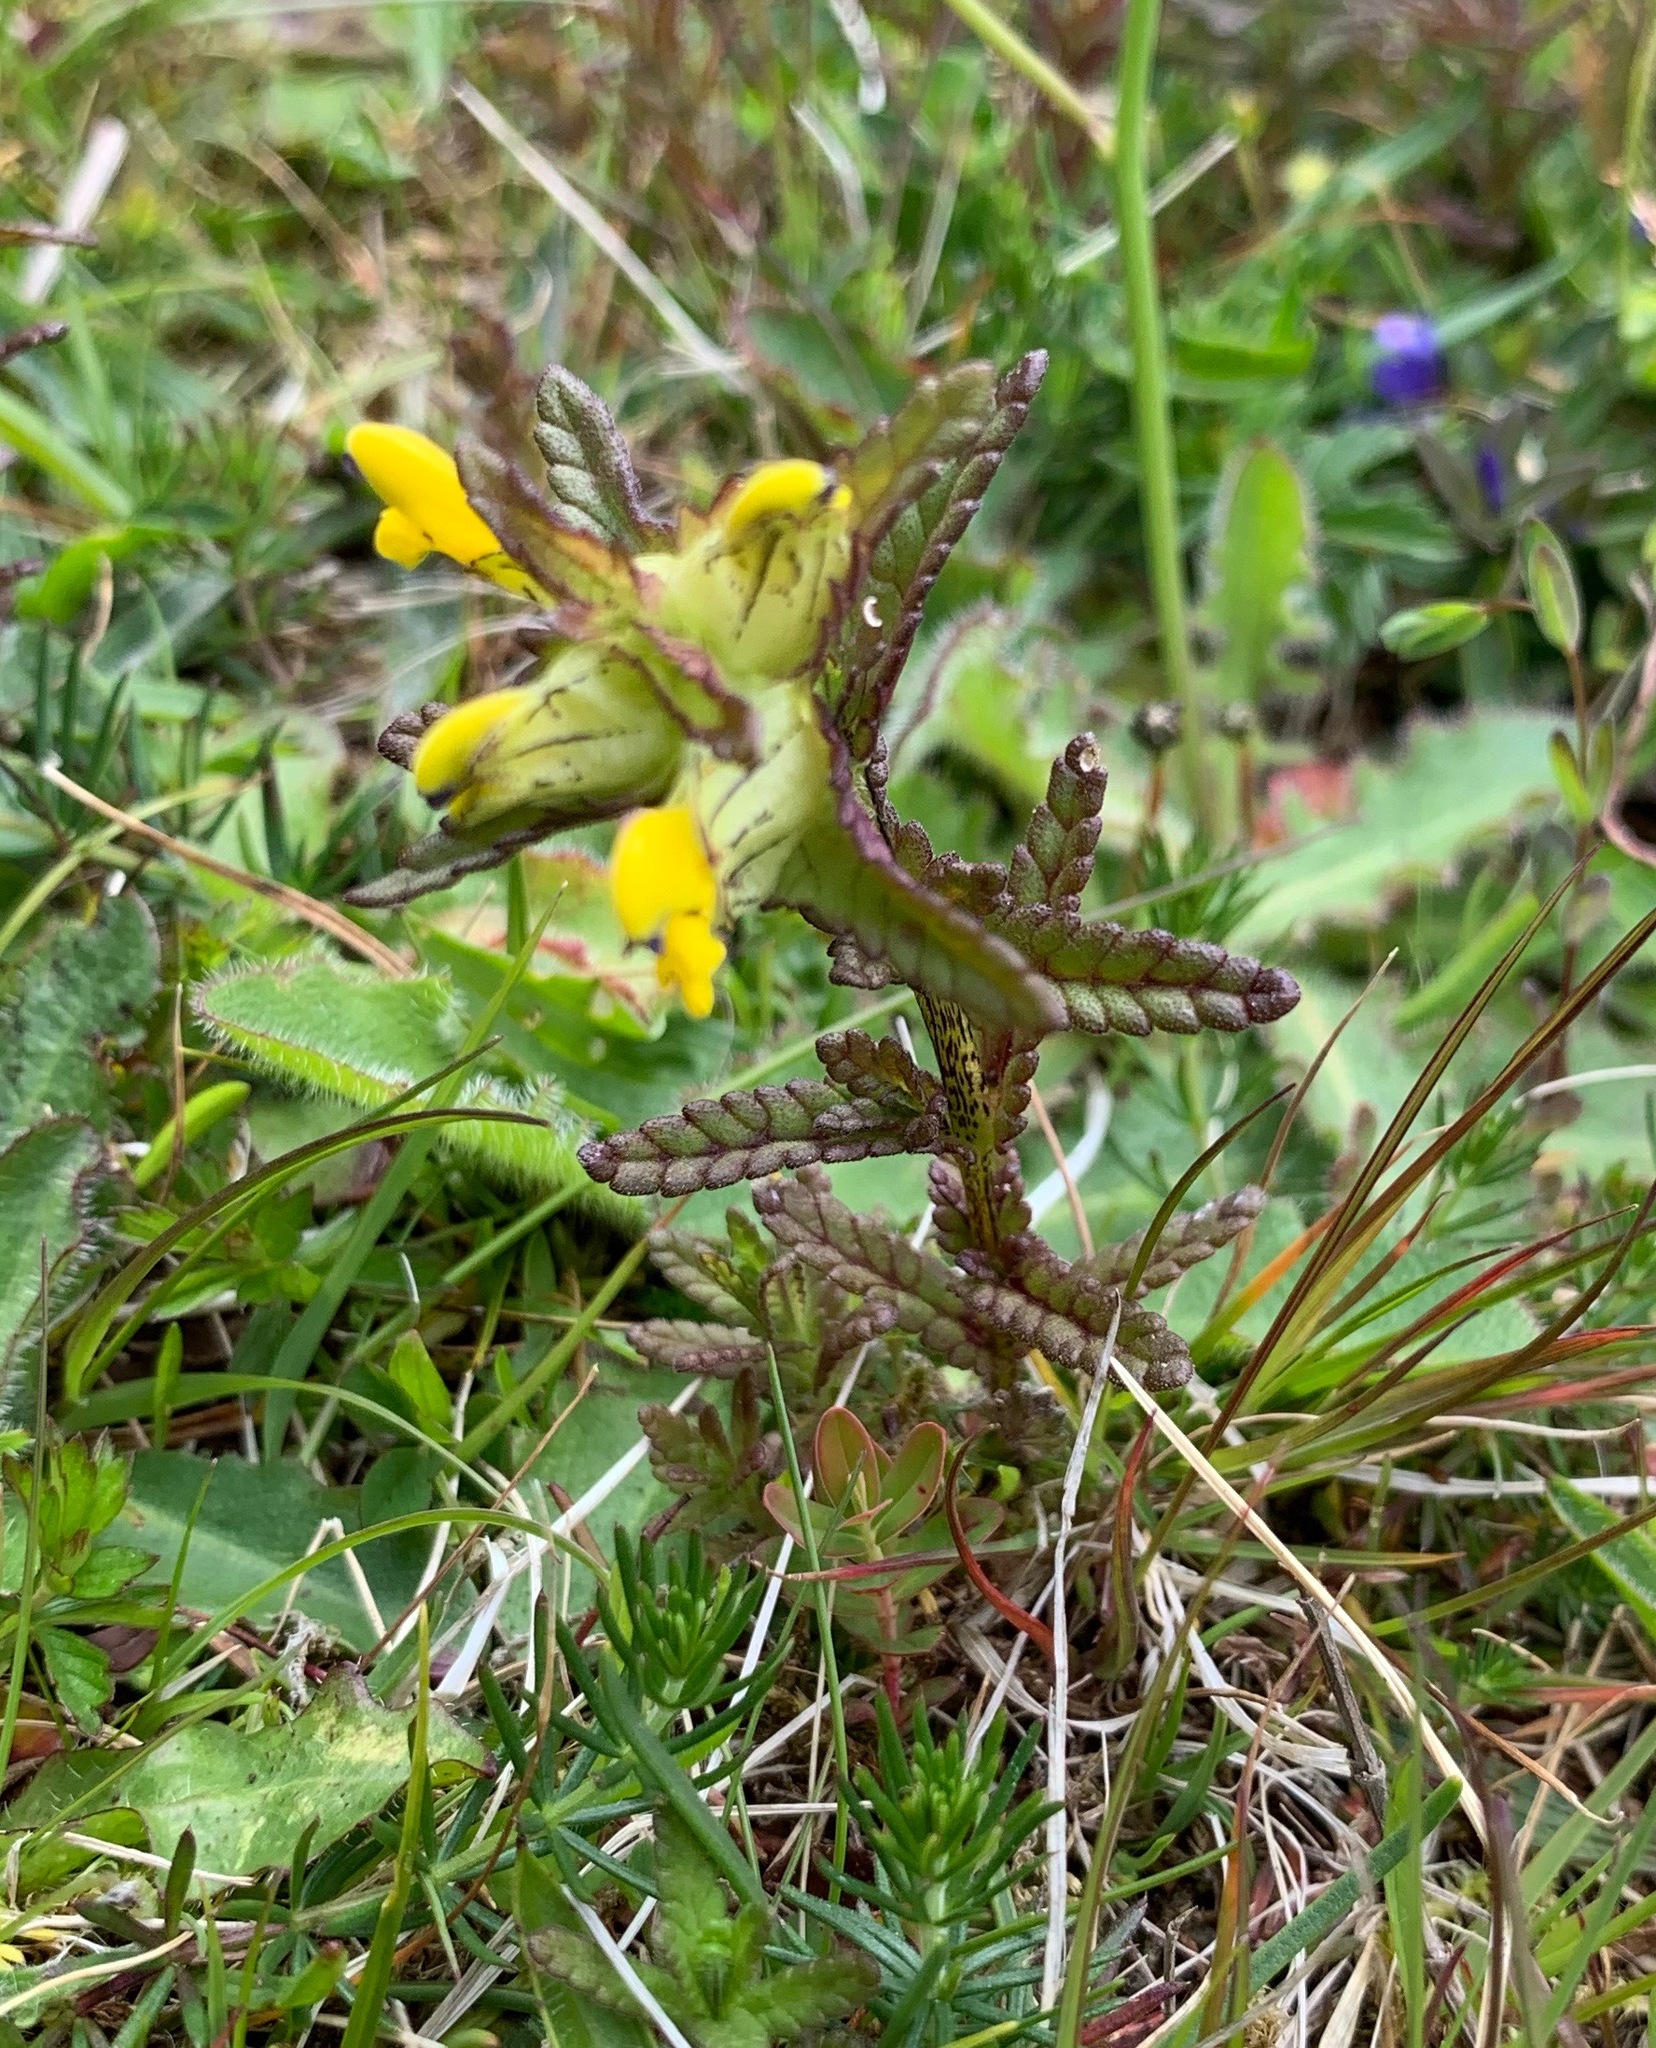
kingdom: Plantae
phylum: Tracheophyta
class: Magnoliopsida
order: Lamiales
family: Orobanchaceae
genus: Rhinanthus
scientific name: Rhinanthus minor
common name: Yellow-rattle
